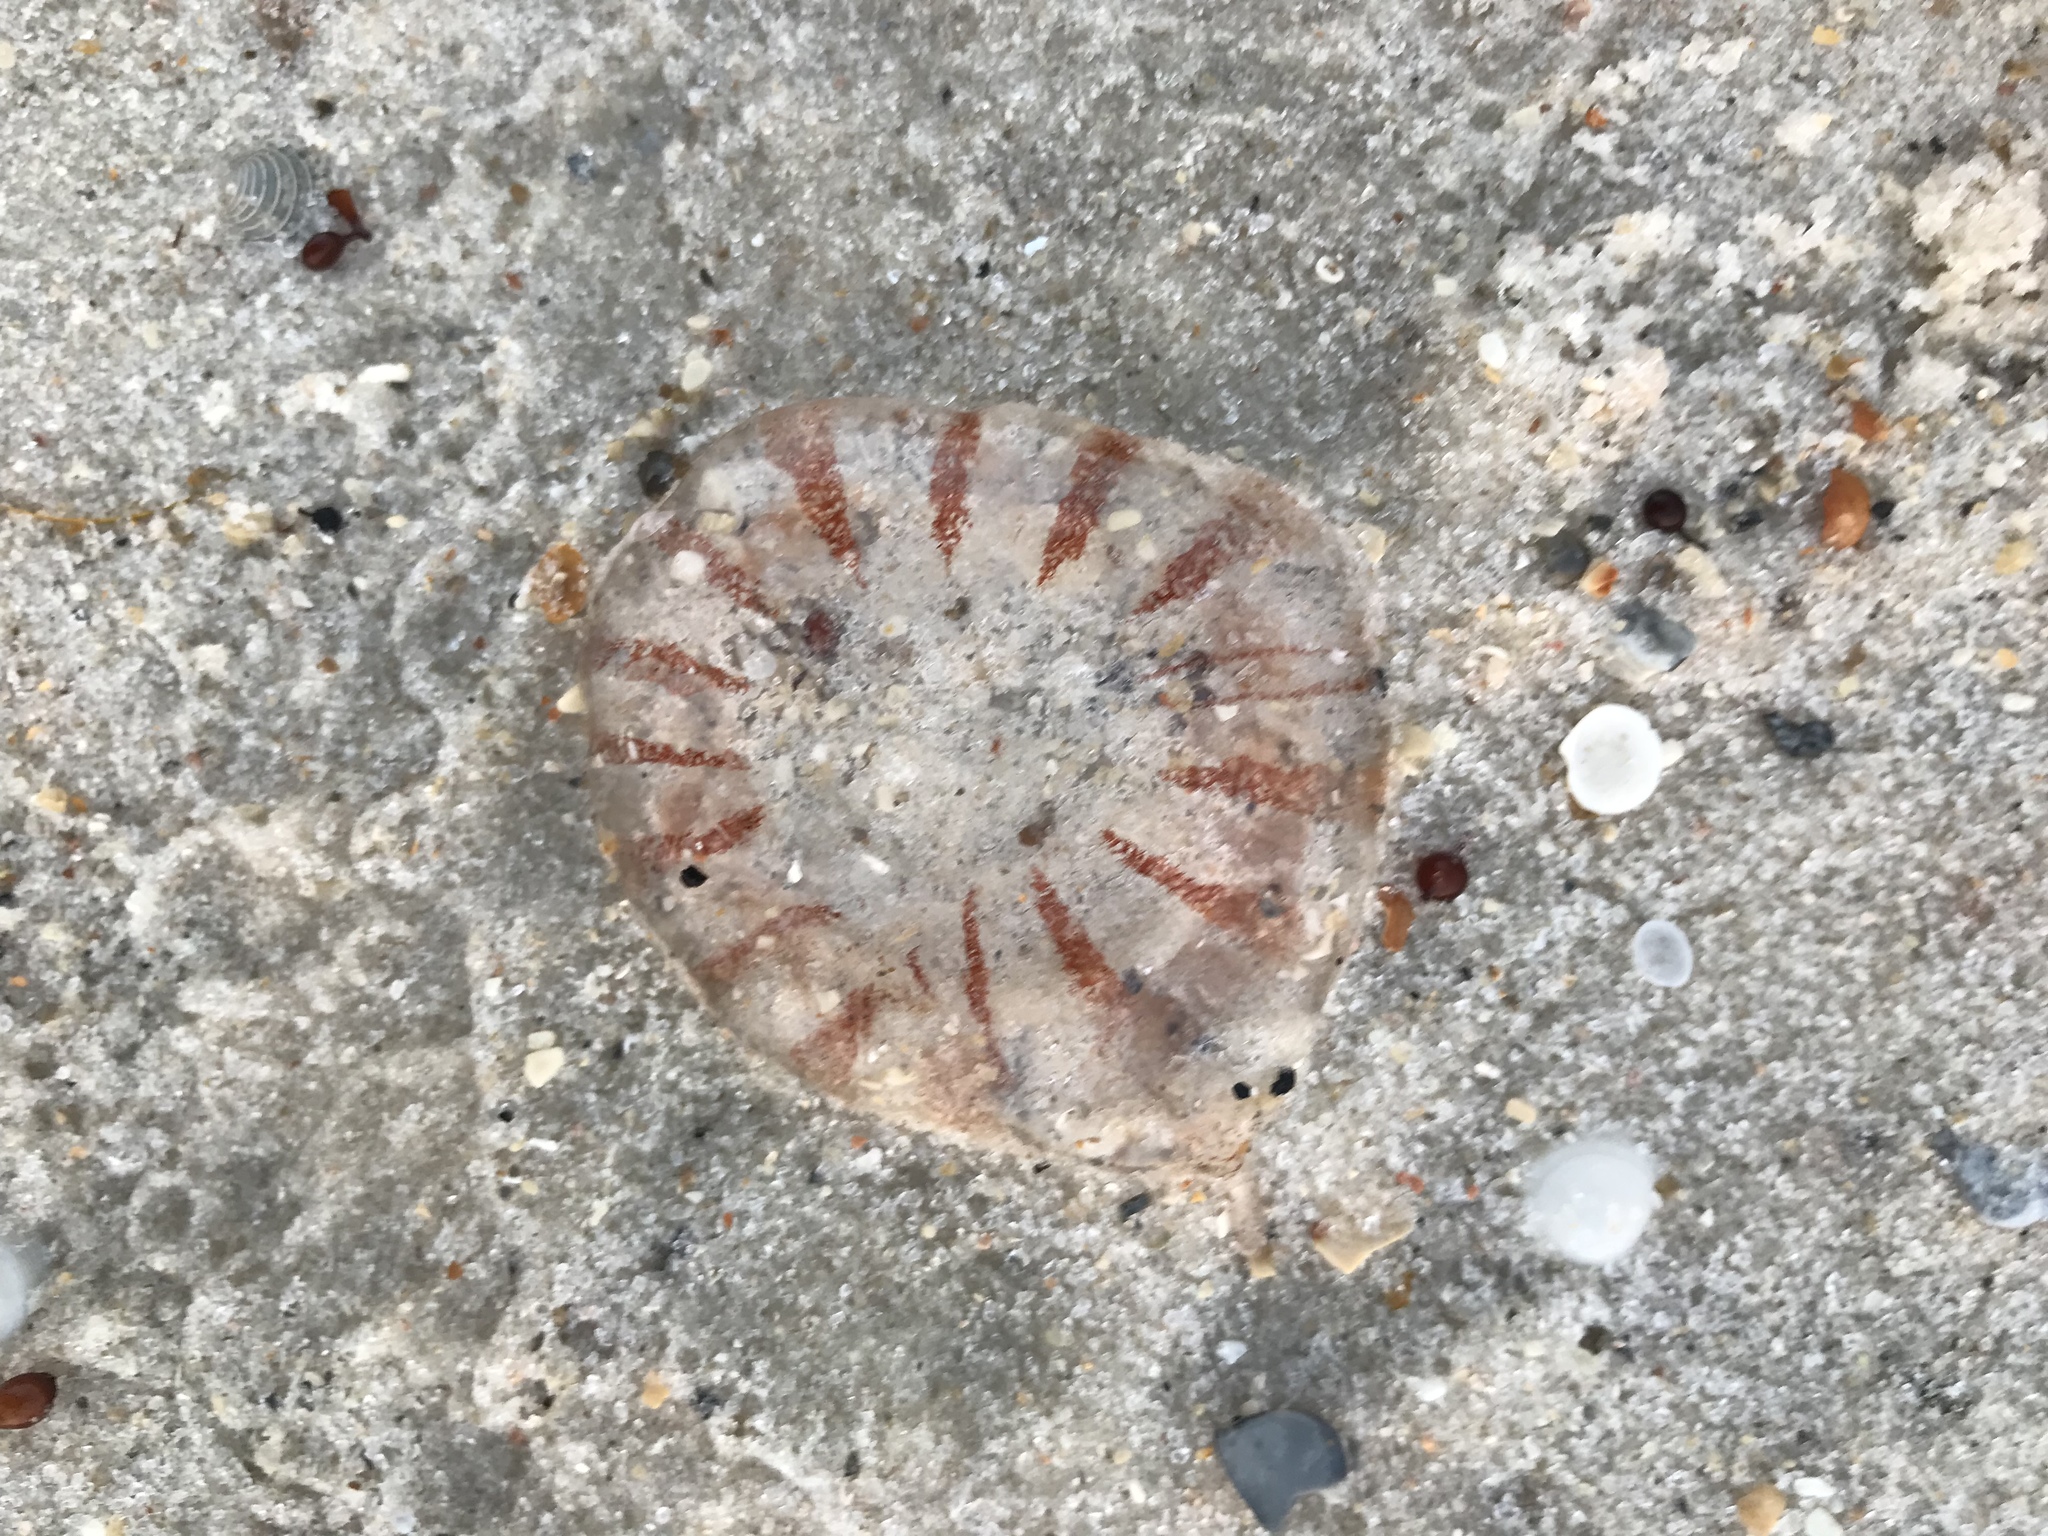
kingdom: Animalia
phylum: Cnidaria
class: Scyphozoa
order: Semaeostomeae
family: Pelagiidae
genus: Chrysaora
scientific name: Chrysaora quinquecirrha
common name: Atlantic sea nettle
